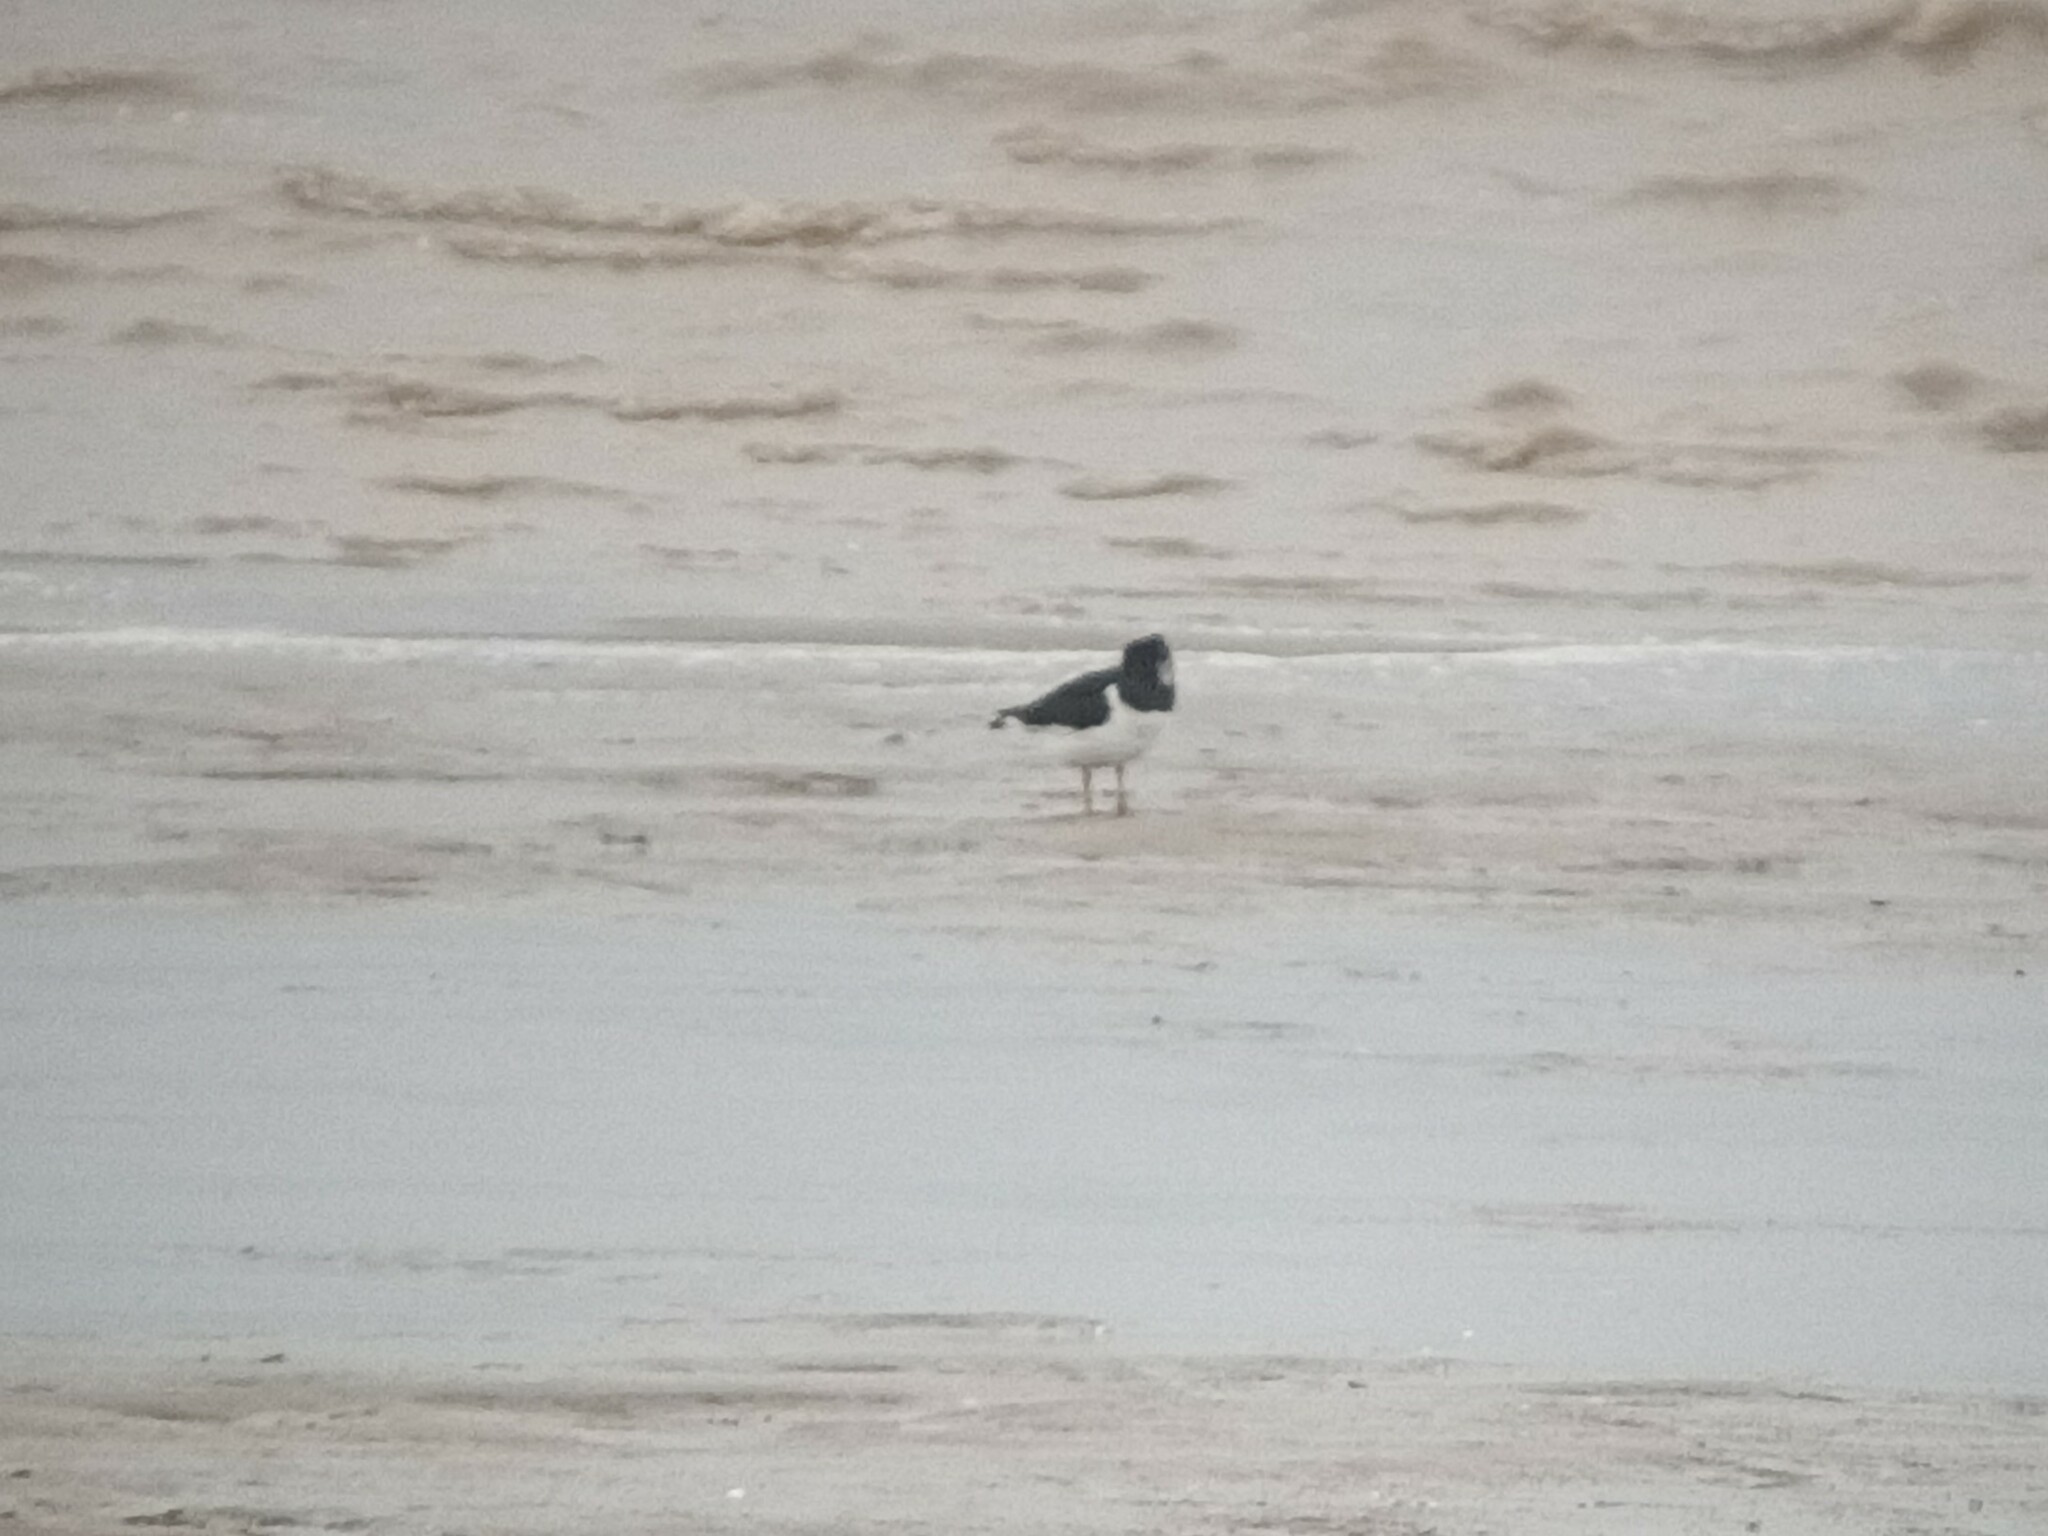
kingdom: Animalia
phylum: Chordata
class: Aves
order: Charadriiformes
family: Haematopodidae
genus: Haematopus
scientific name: Haematopus ostralegus
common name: Eurasian oystercatcher
